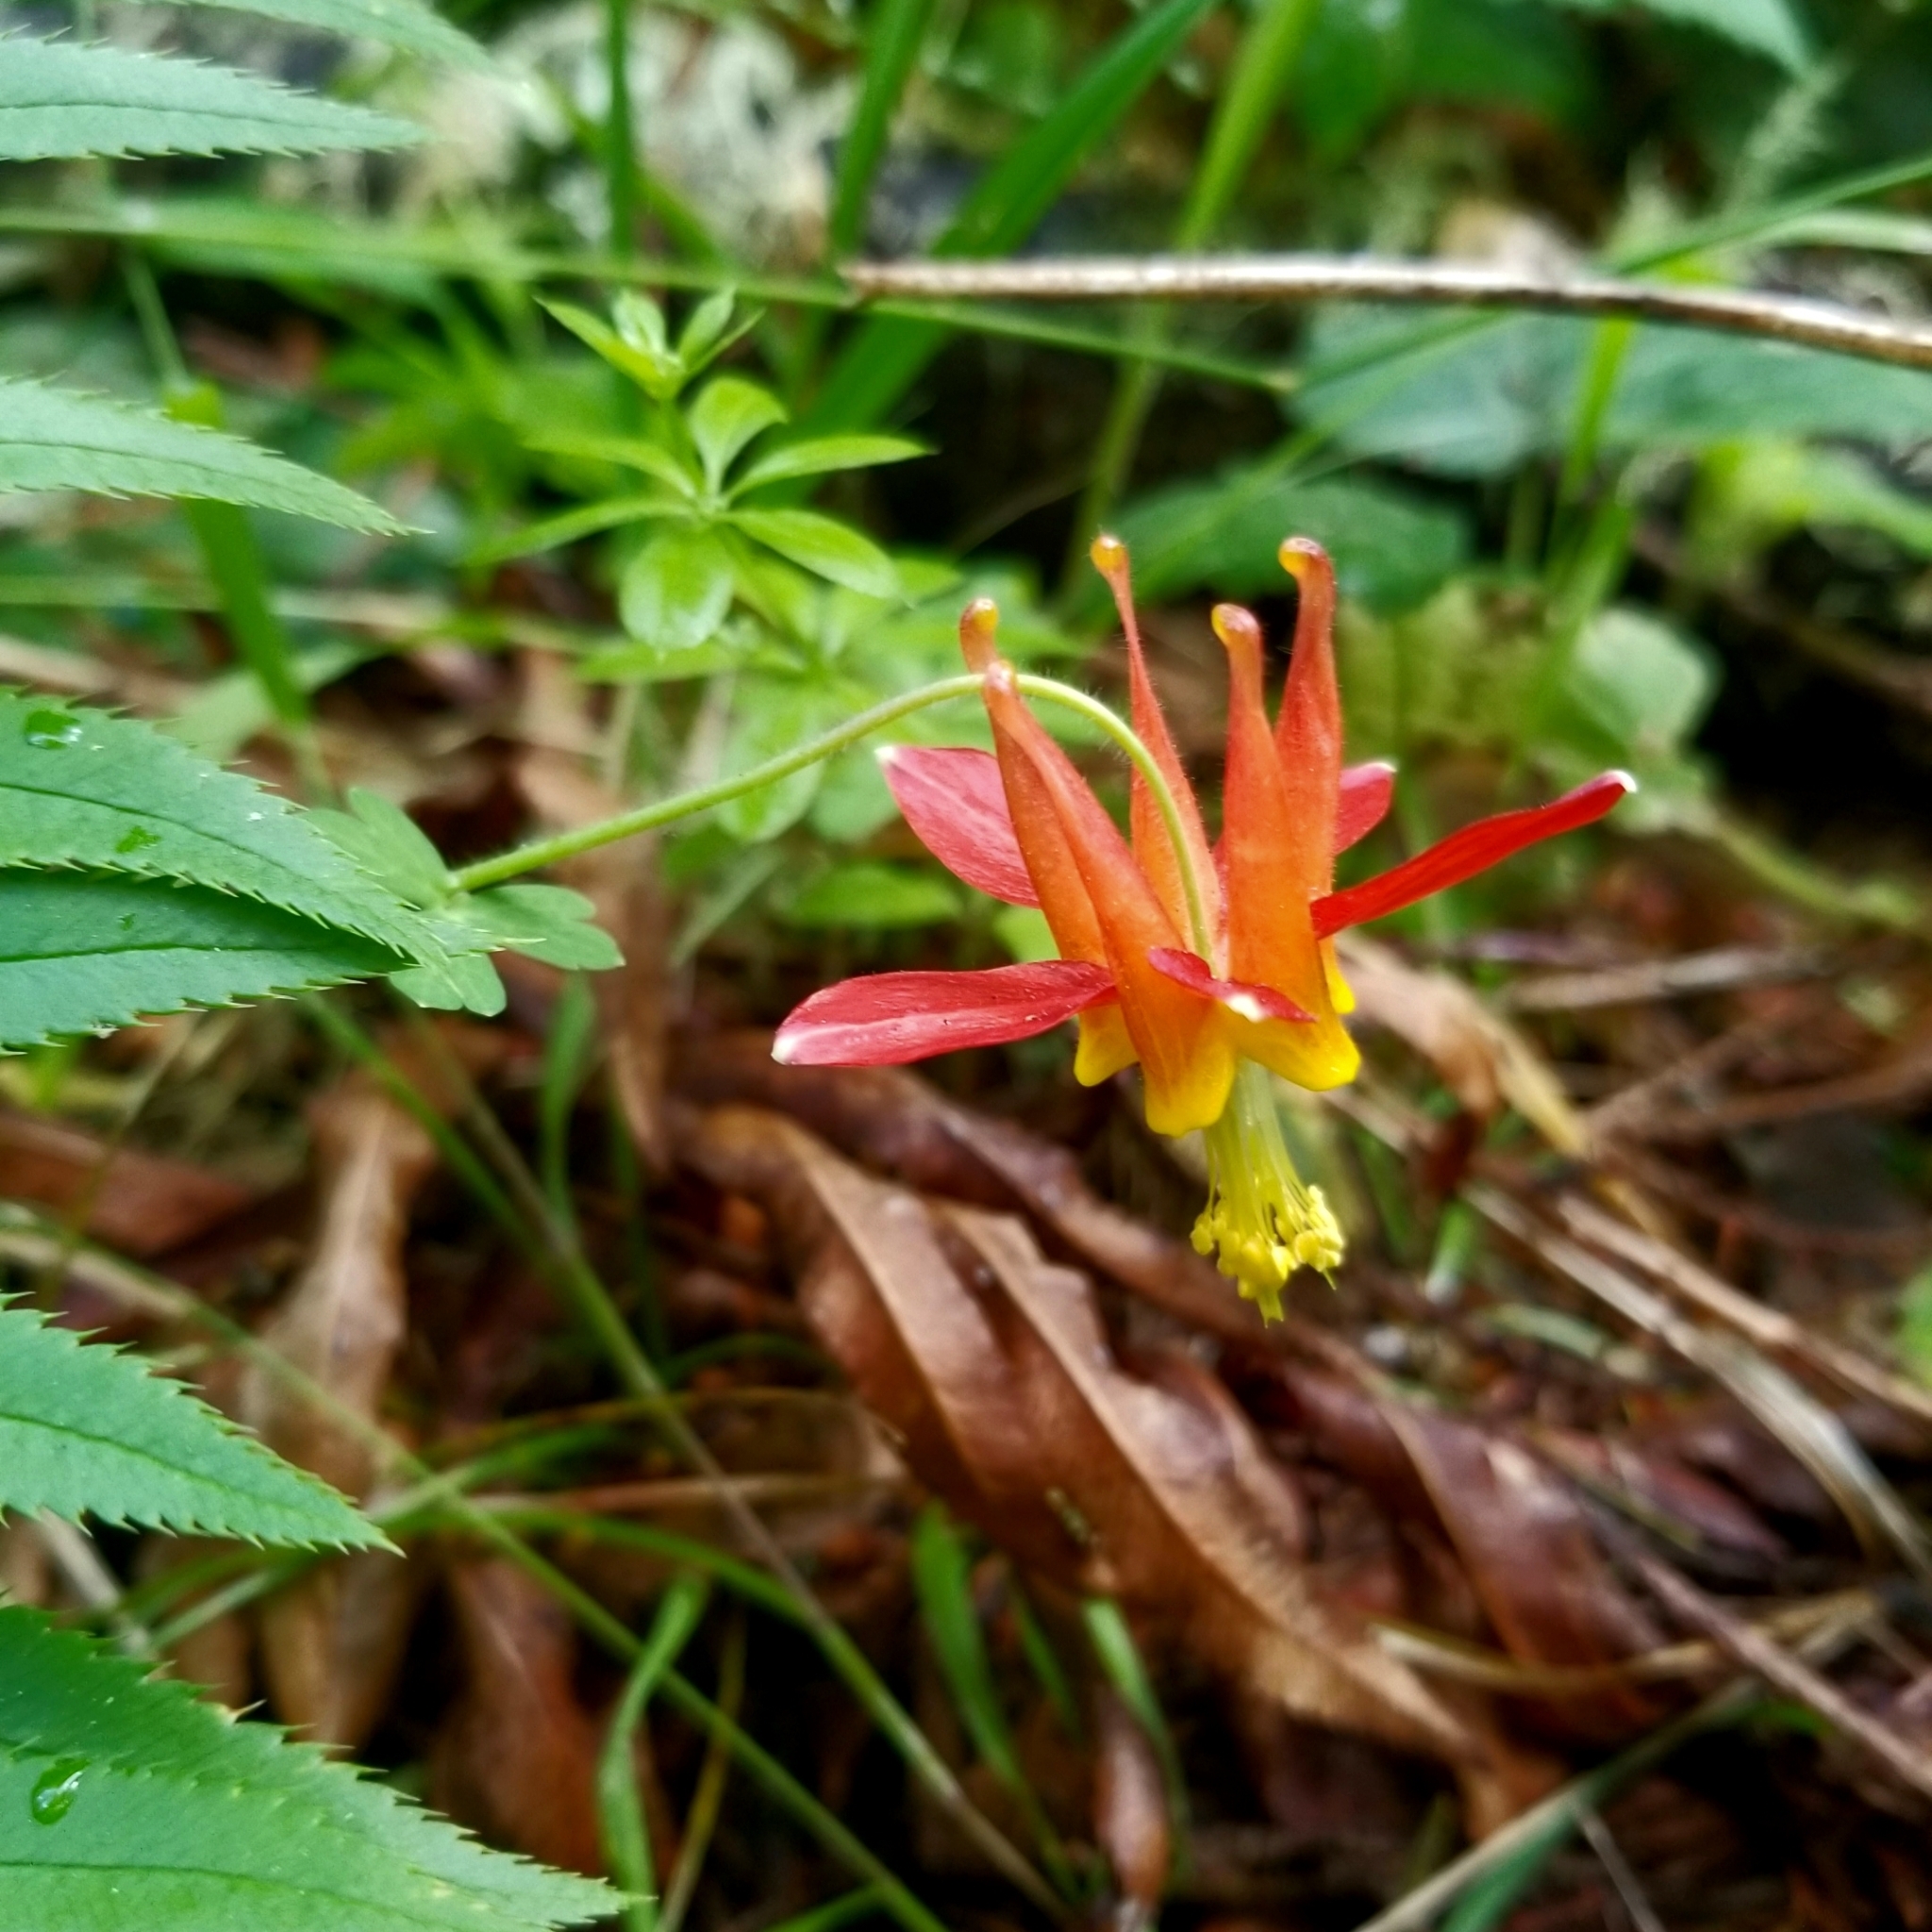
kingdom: Plantae
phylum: Tracheophyta
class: Magnoliopsida
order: Ranunculales
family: Ranunculaceae
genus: Aquilegia
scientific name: Aquilegia formosa
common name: Sitka columbine
